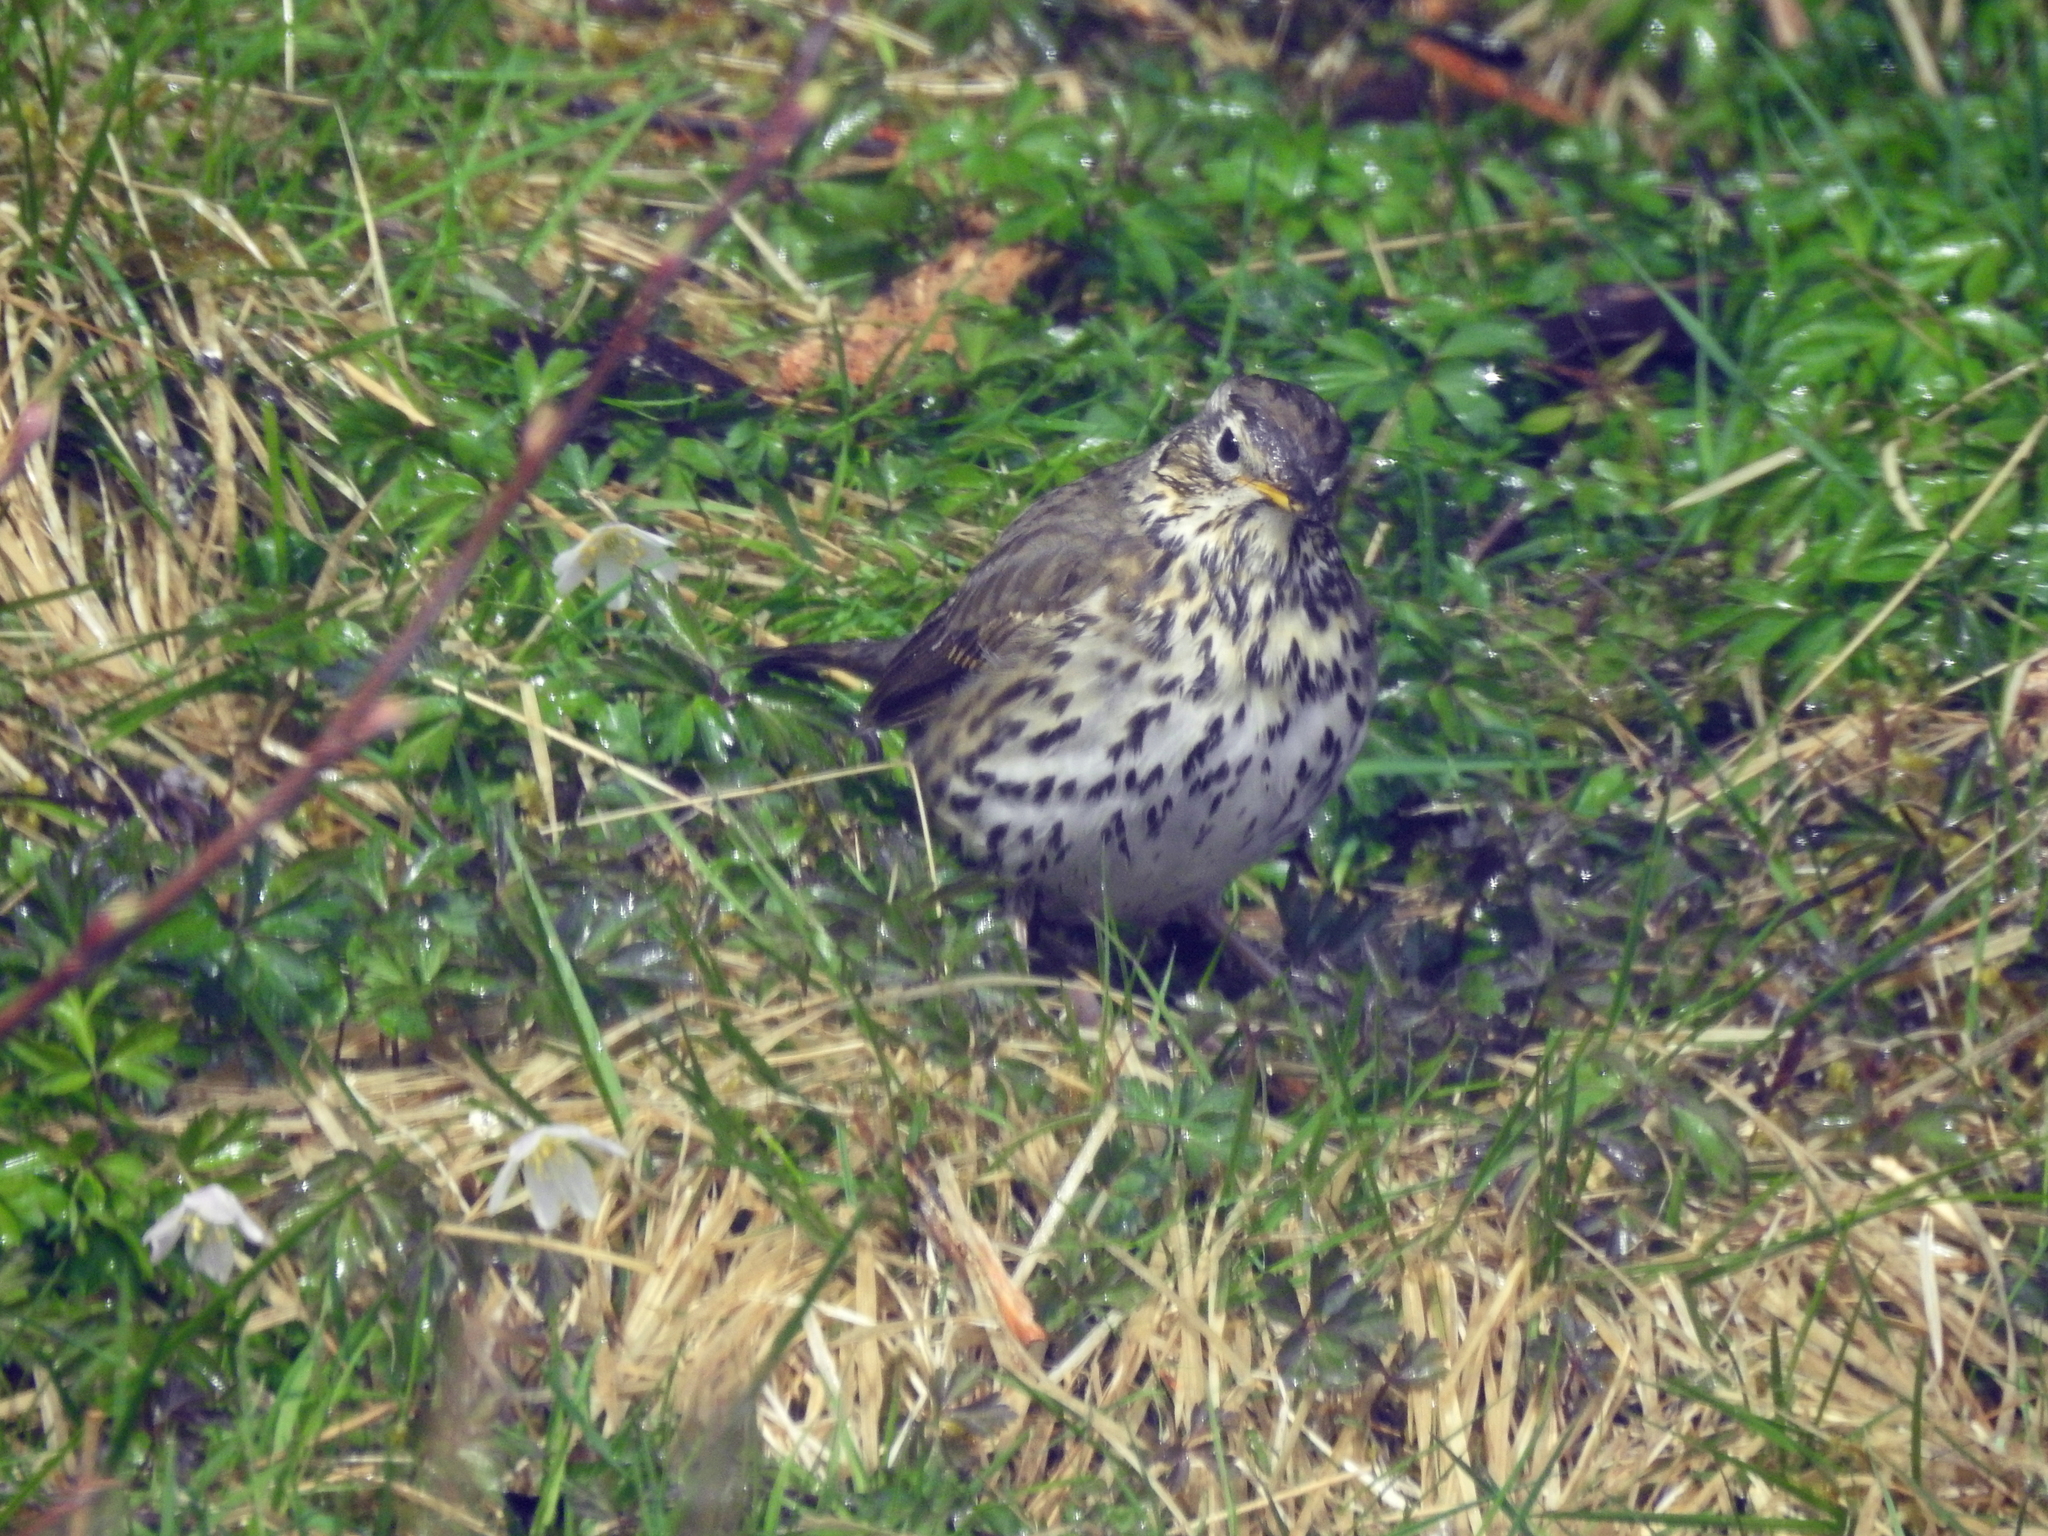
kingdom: Animalia
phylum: Chordata
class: Aves
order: Passeriformes
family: Turdidae
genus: Turdus
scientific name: Turdus philomelos
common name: Song thrush
